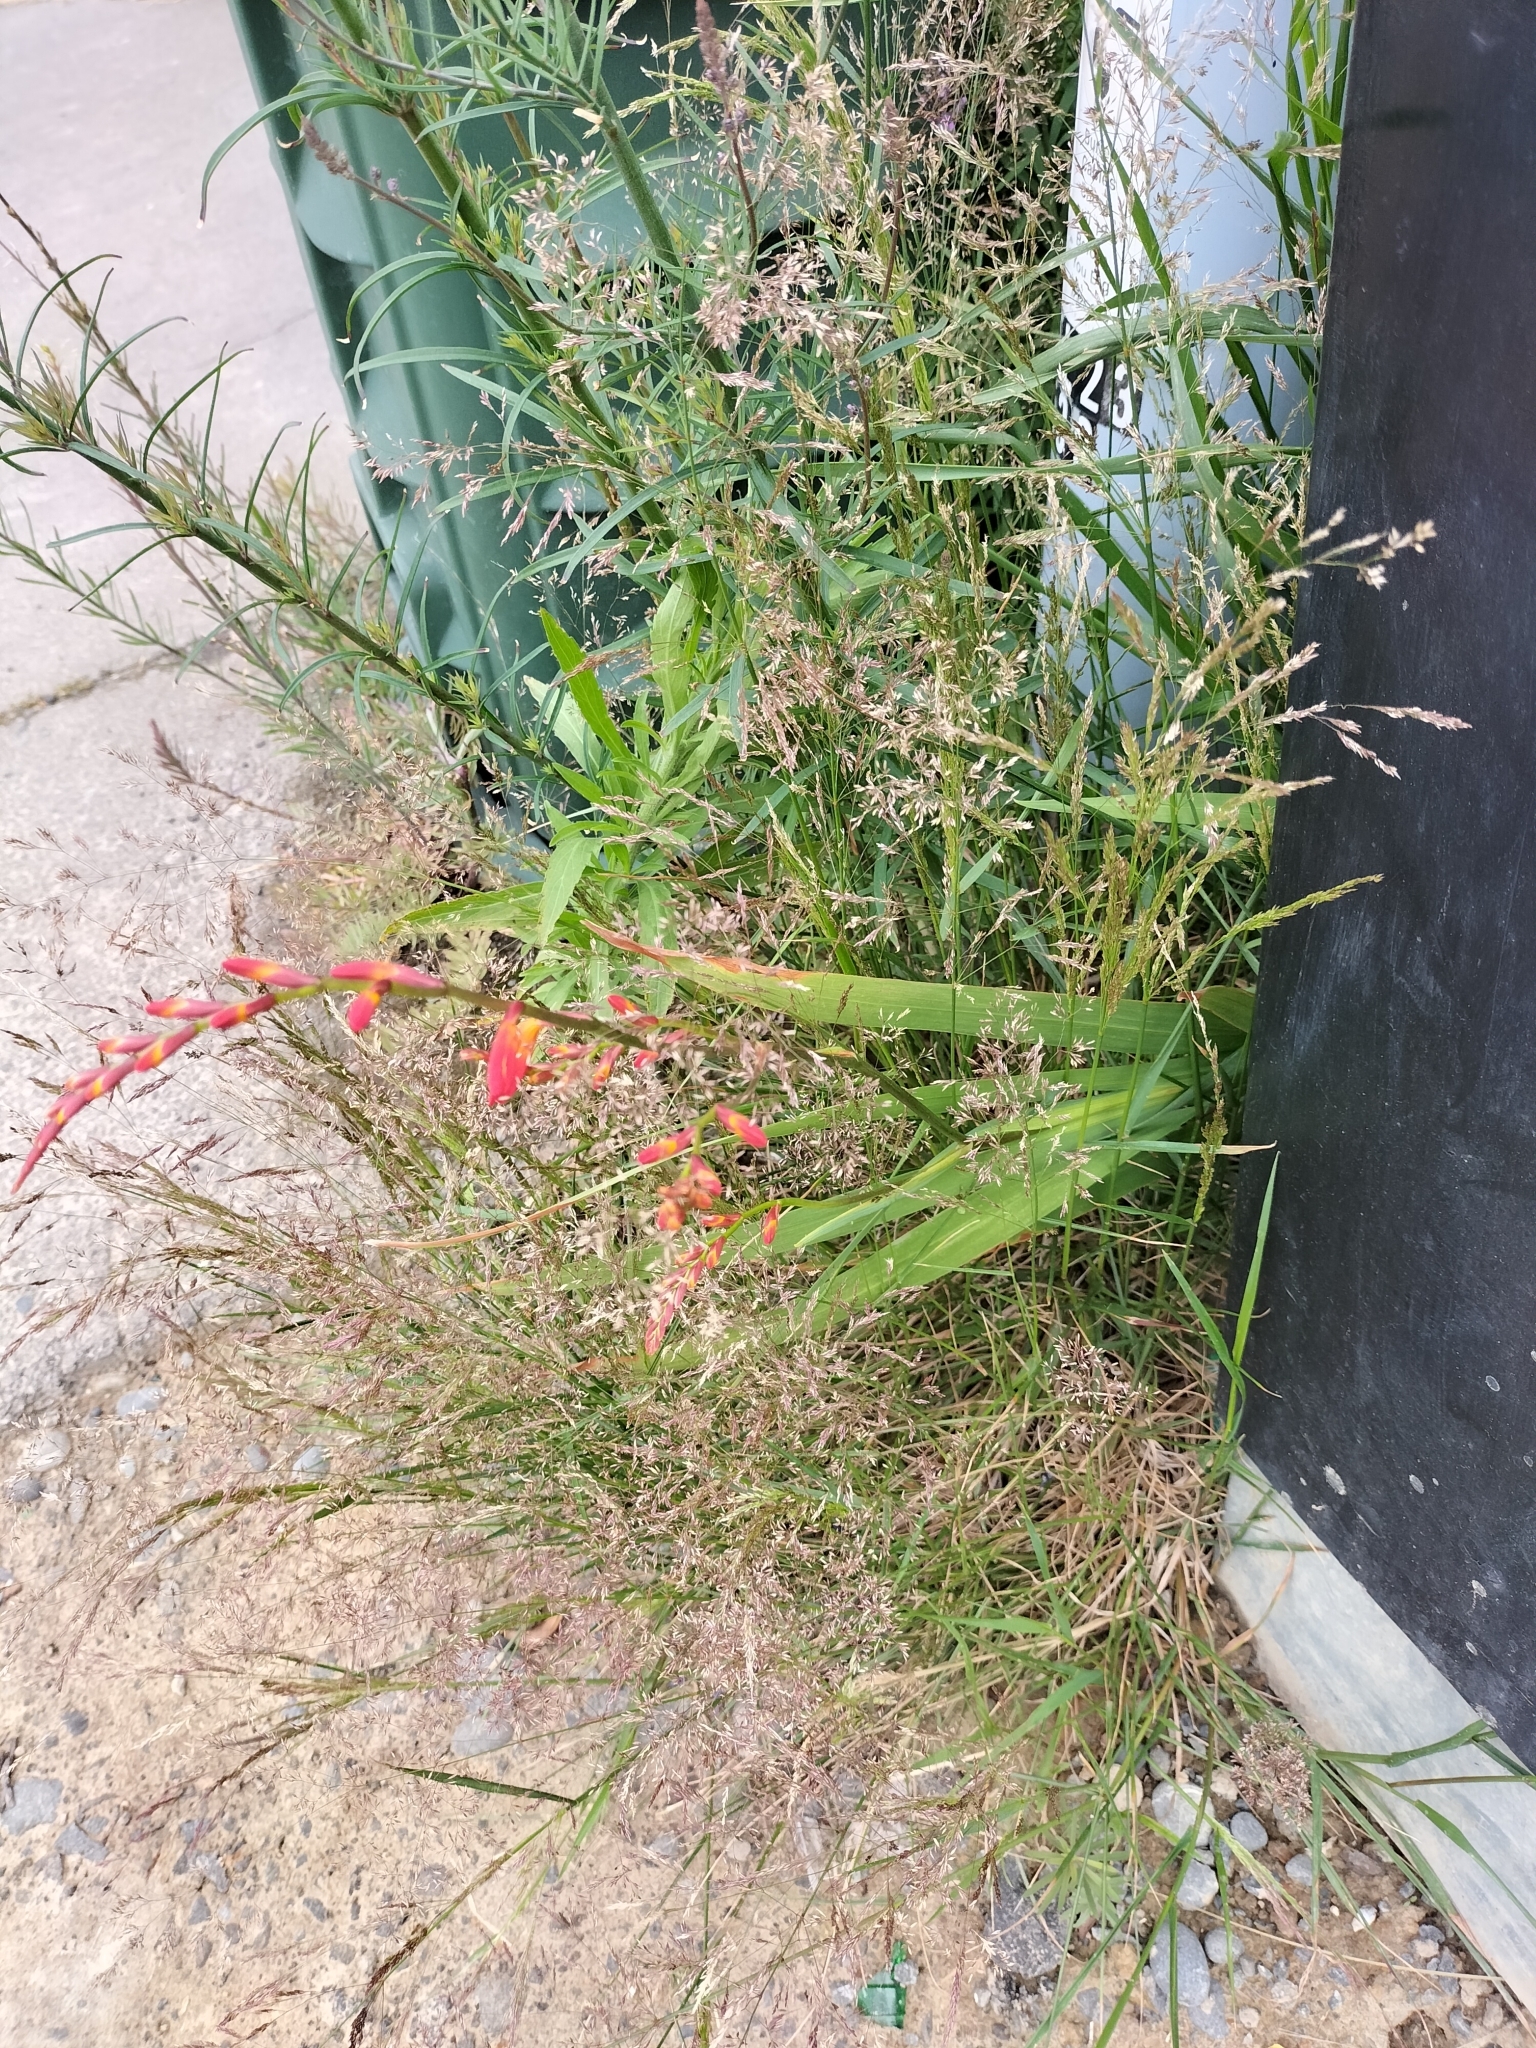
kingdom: Plantae
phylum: Tracheophyta
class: Liliopsida
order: Asparagales
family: Iridaceae
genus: Crocosmia
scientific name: Crocosmia crocosmiiflora
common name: Montbretia
